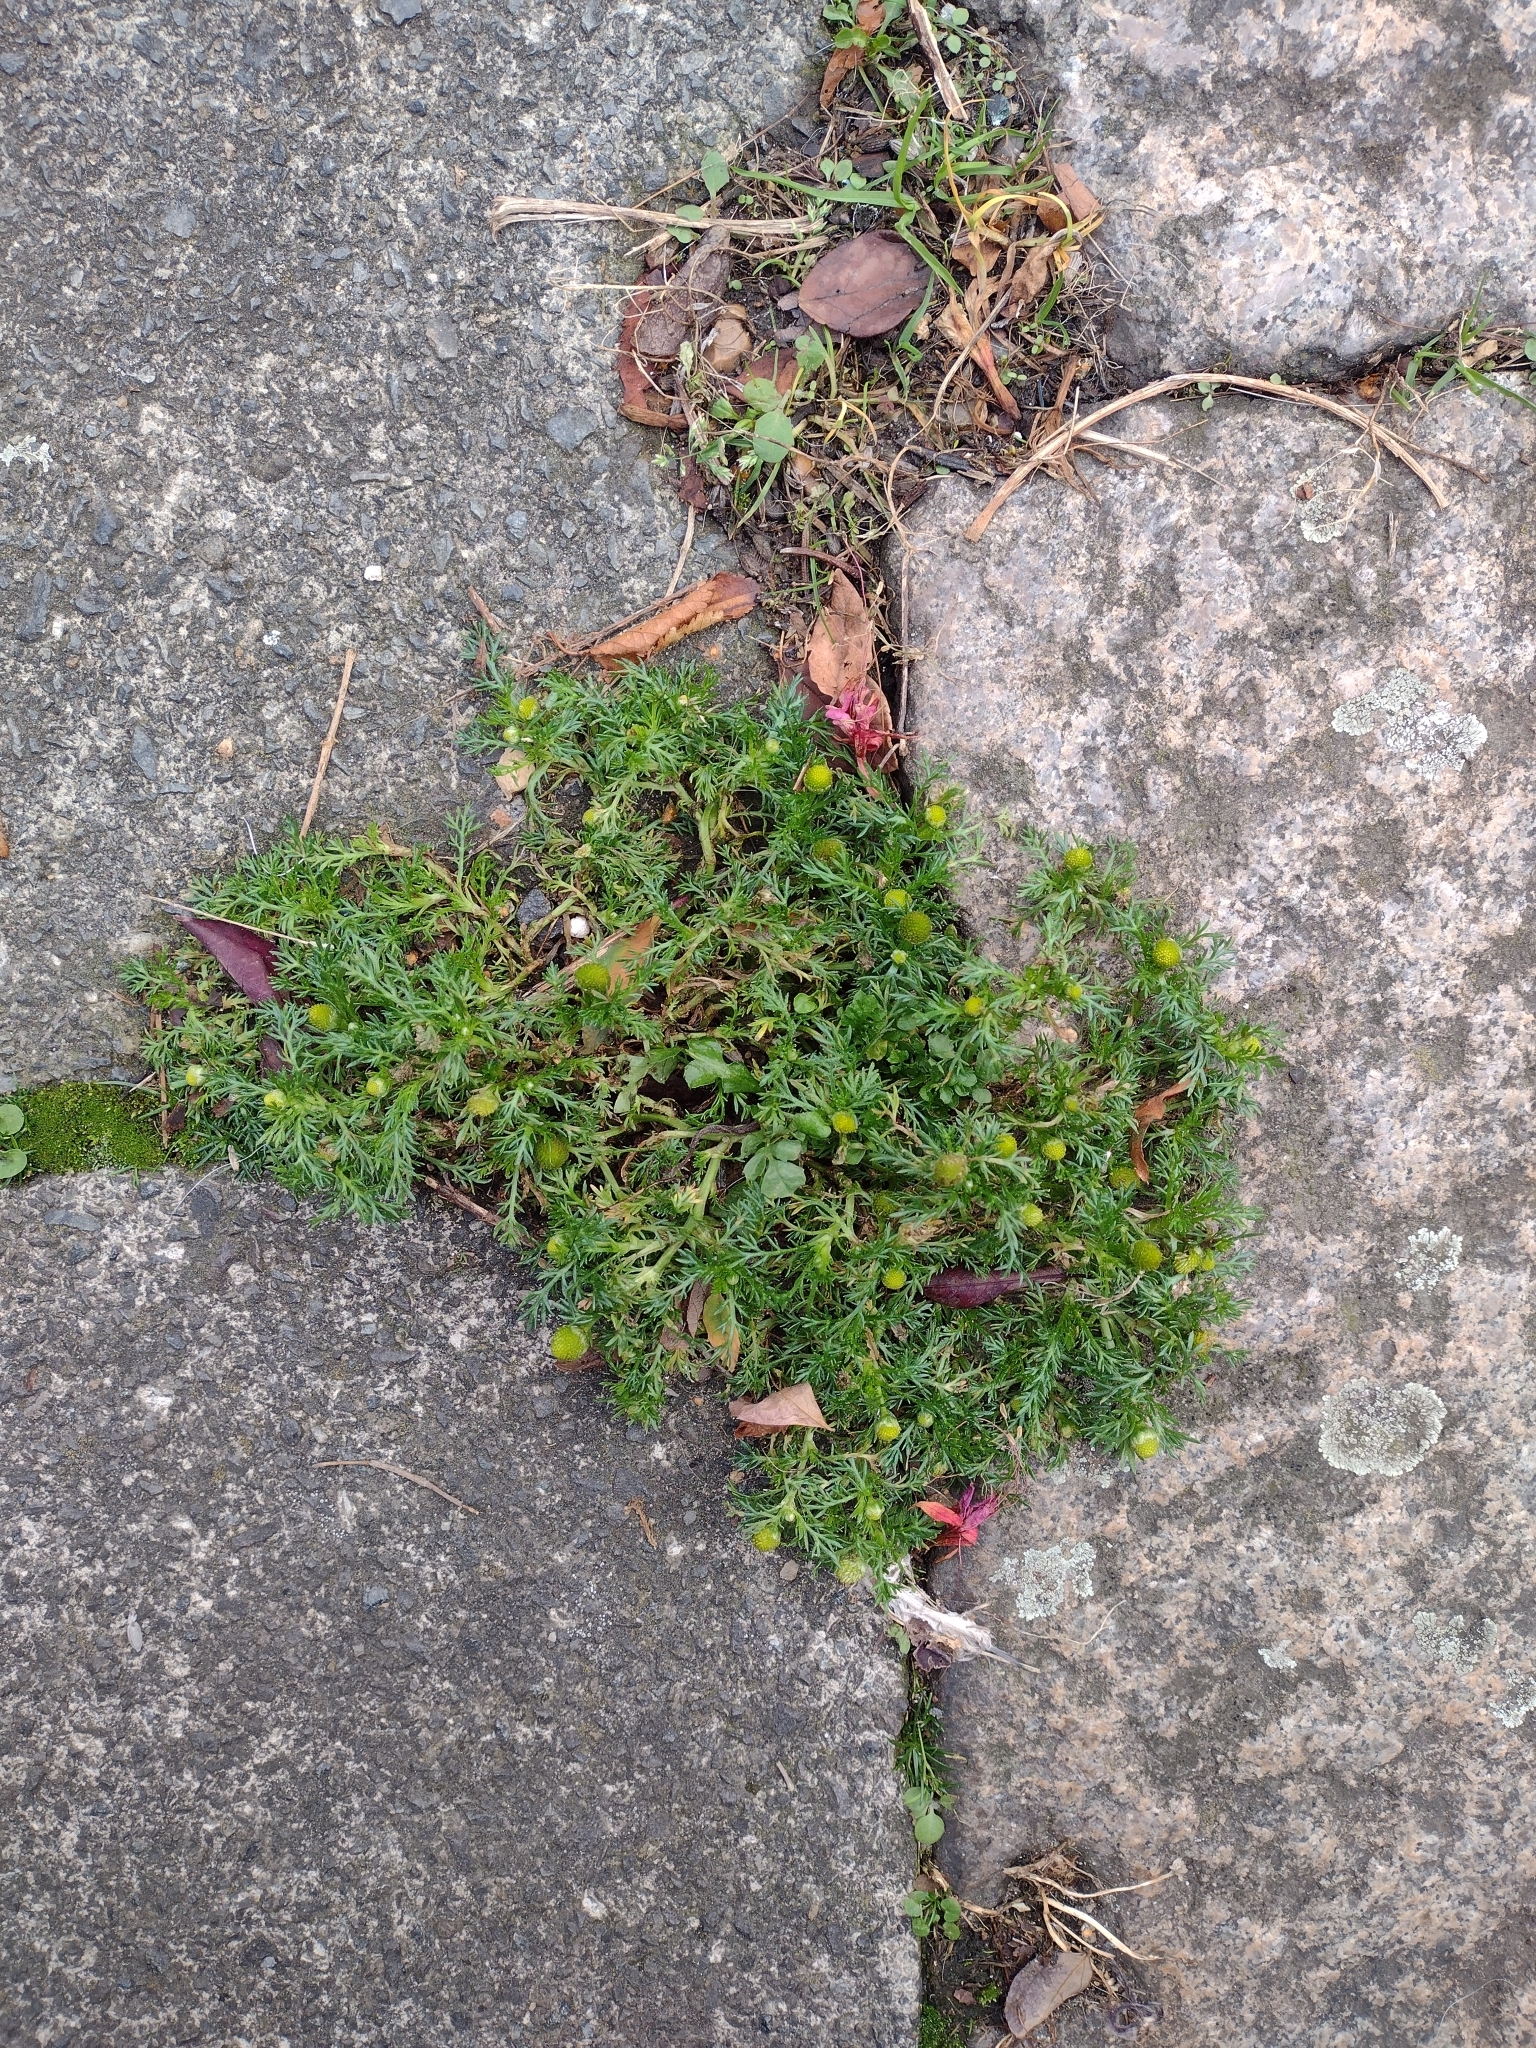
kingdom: Plantae
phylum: Tracheophyta
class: Magnoliopsida
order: Asterales
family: Asteraceae
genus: Matricaria
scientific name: Matricaria discoidea
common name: Disc mayweed
